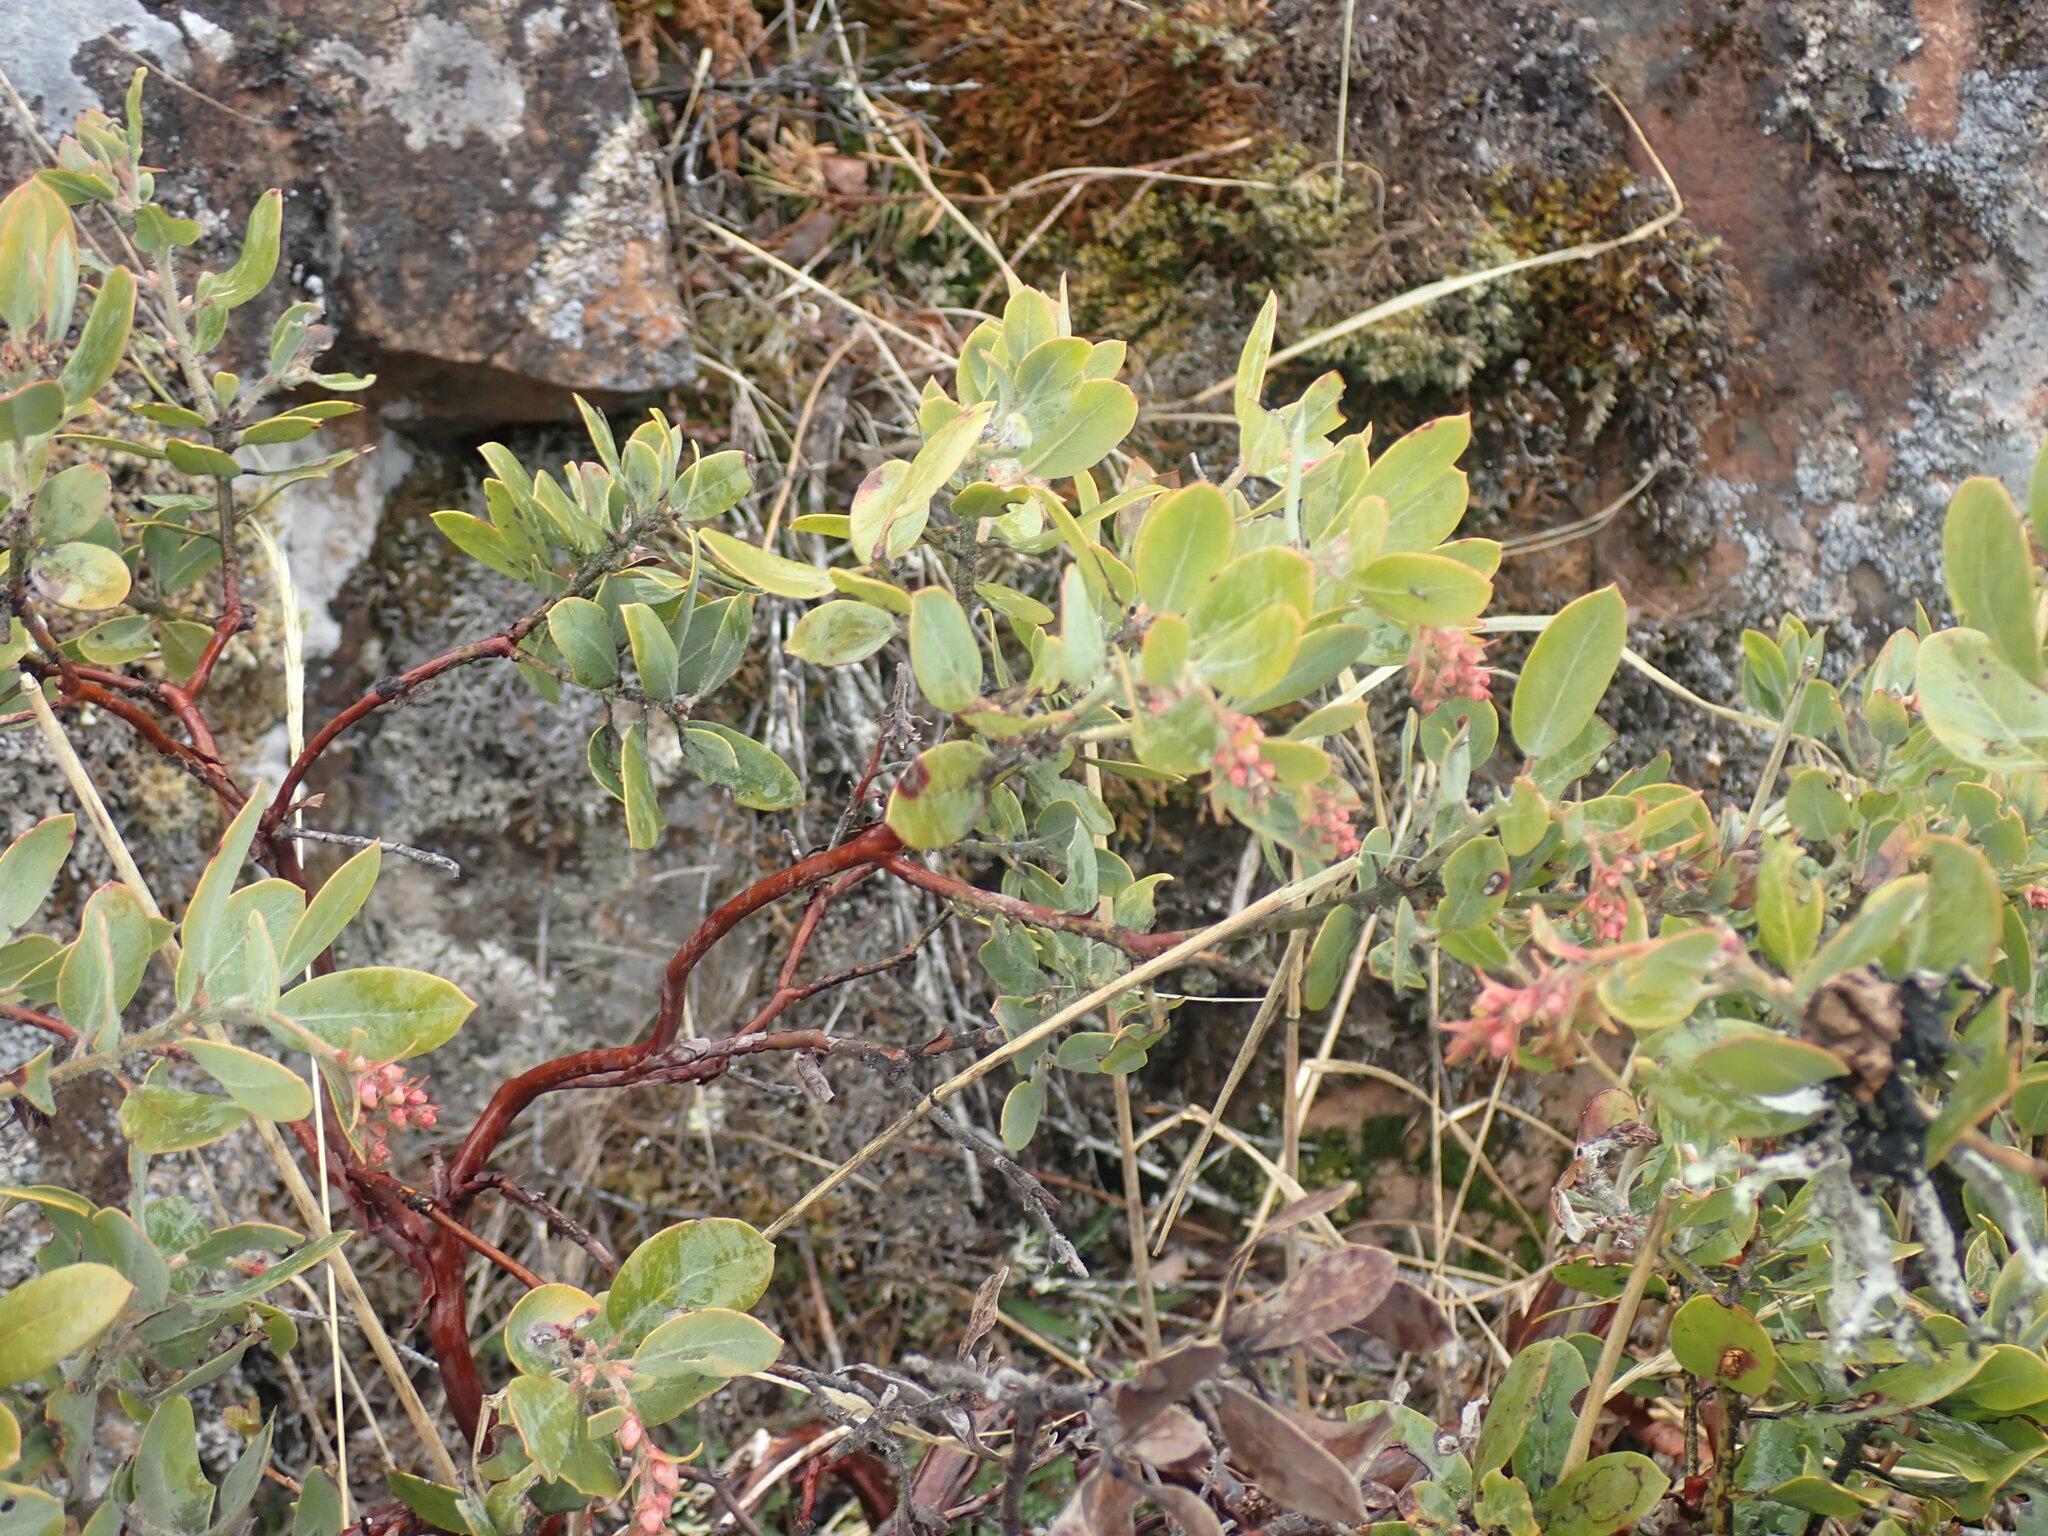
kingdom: Plantae
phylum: Tracheophyta
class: Magnoliopsida
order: Ericales
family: Ericaceae
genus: Arctostaphylos
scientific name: Arctostaphylos columbiana
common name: Bristly bearberry
